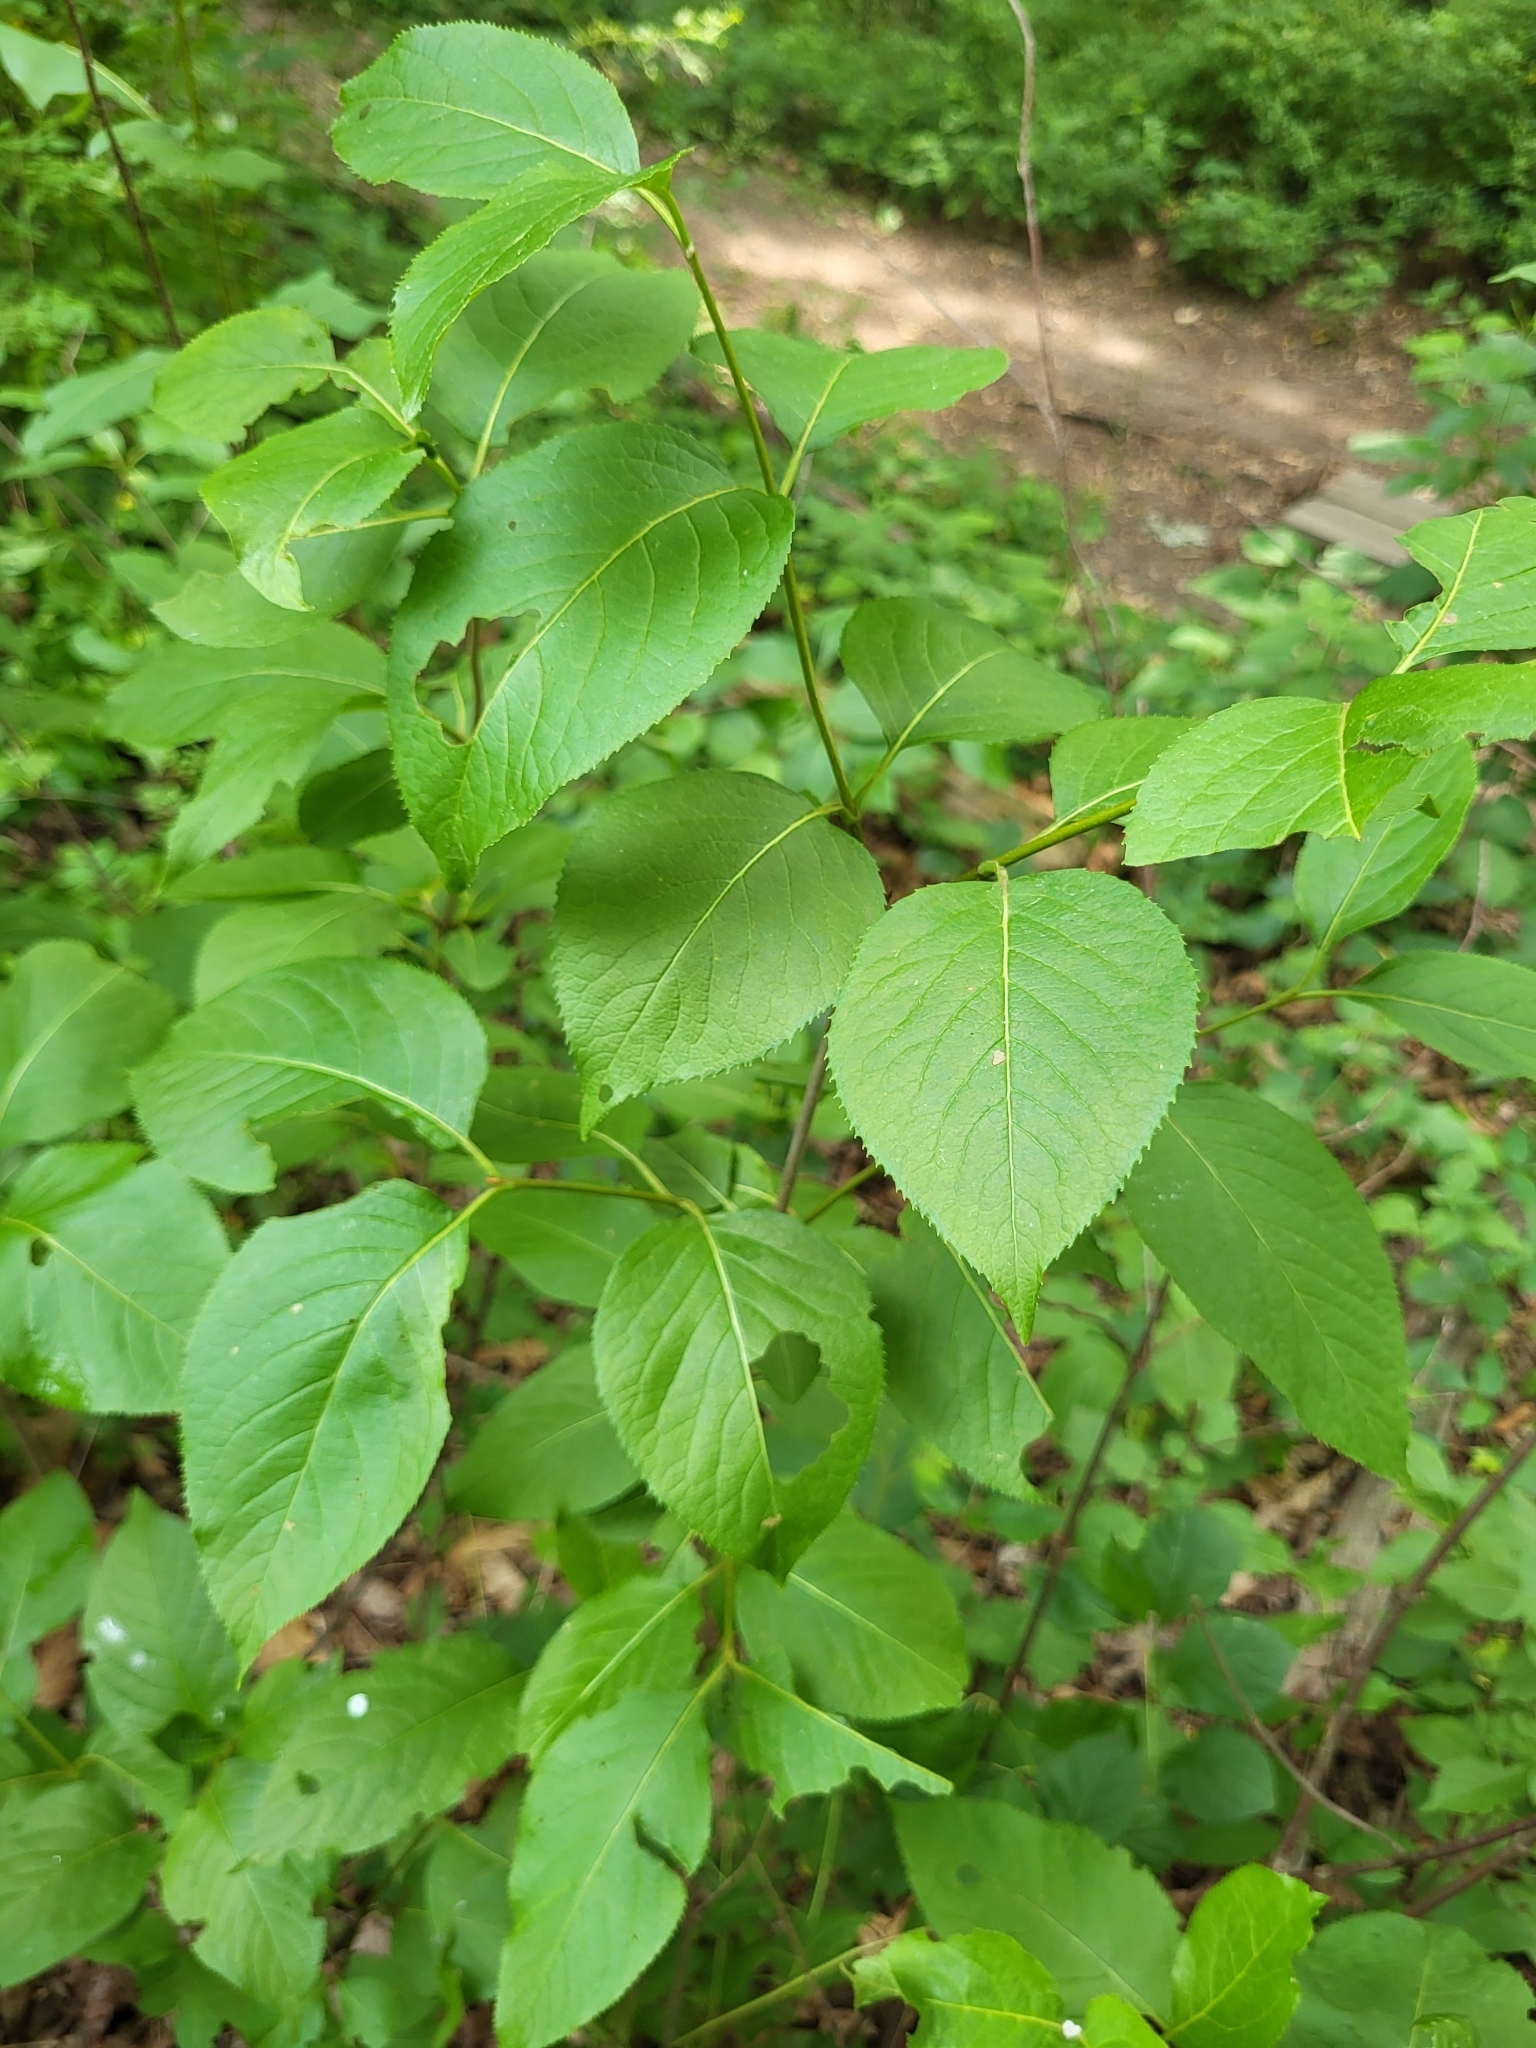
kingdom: Plantae
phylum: Tracheophyta
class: Magnoliopsida
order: Dipsacales
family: Viburnaceae
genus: Viburnum
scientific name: Viburnum lentago
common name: Black haw
